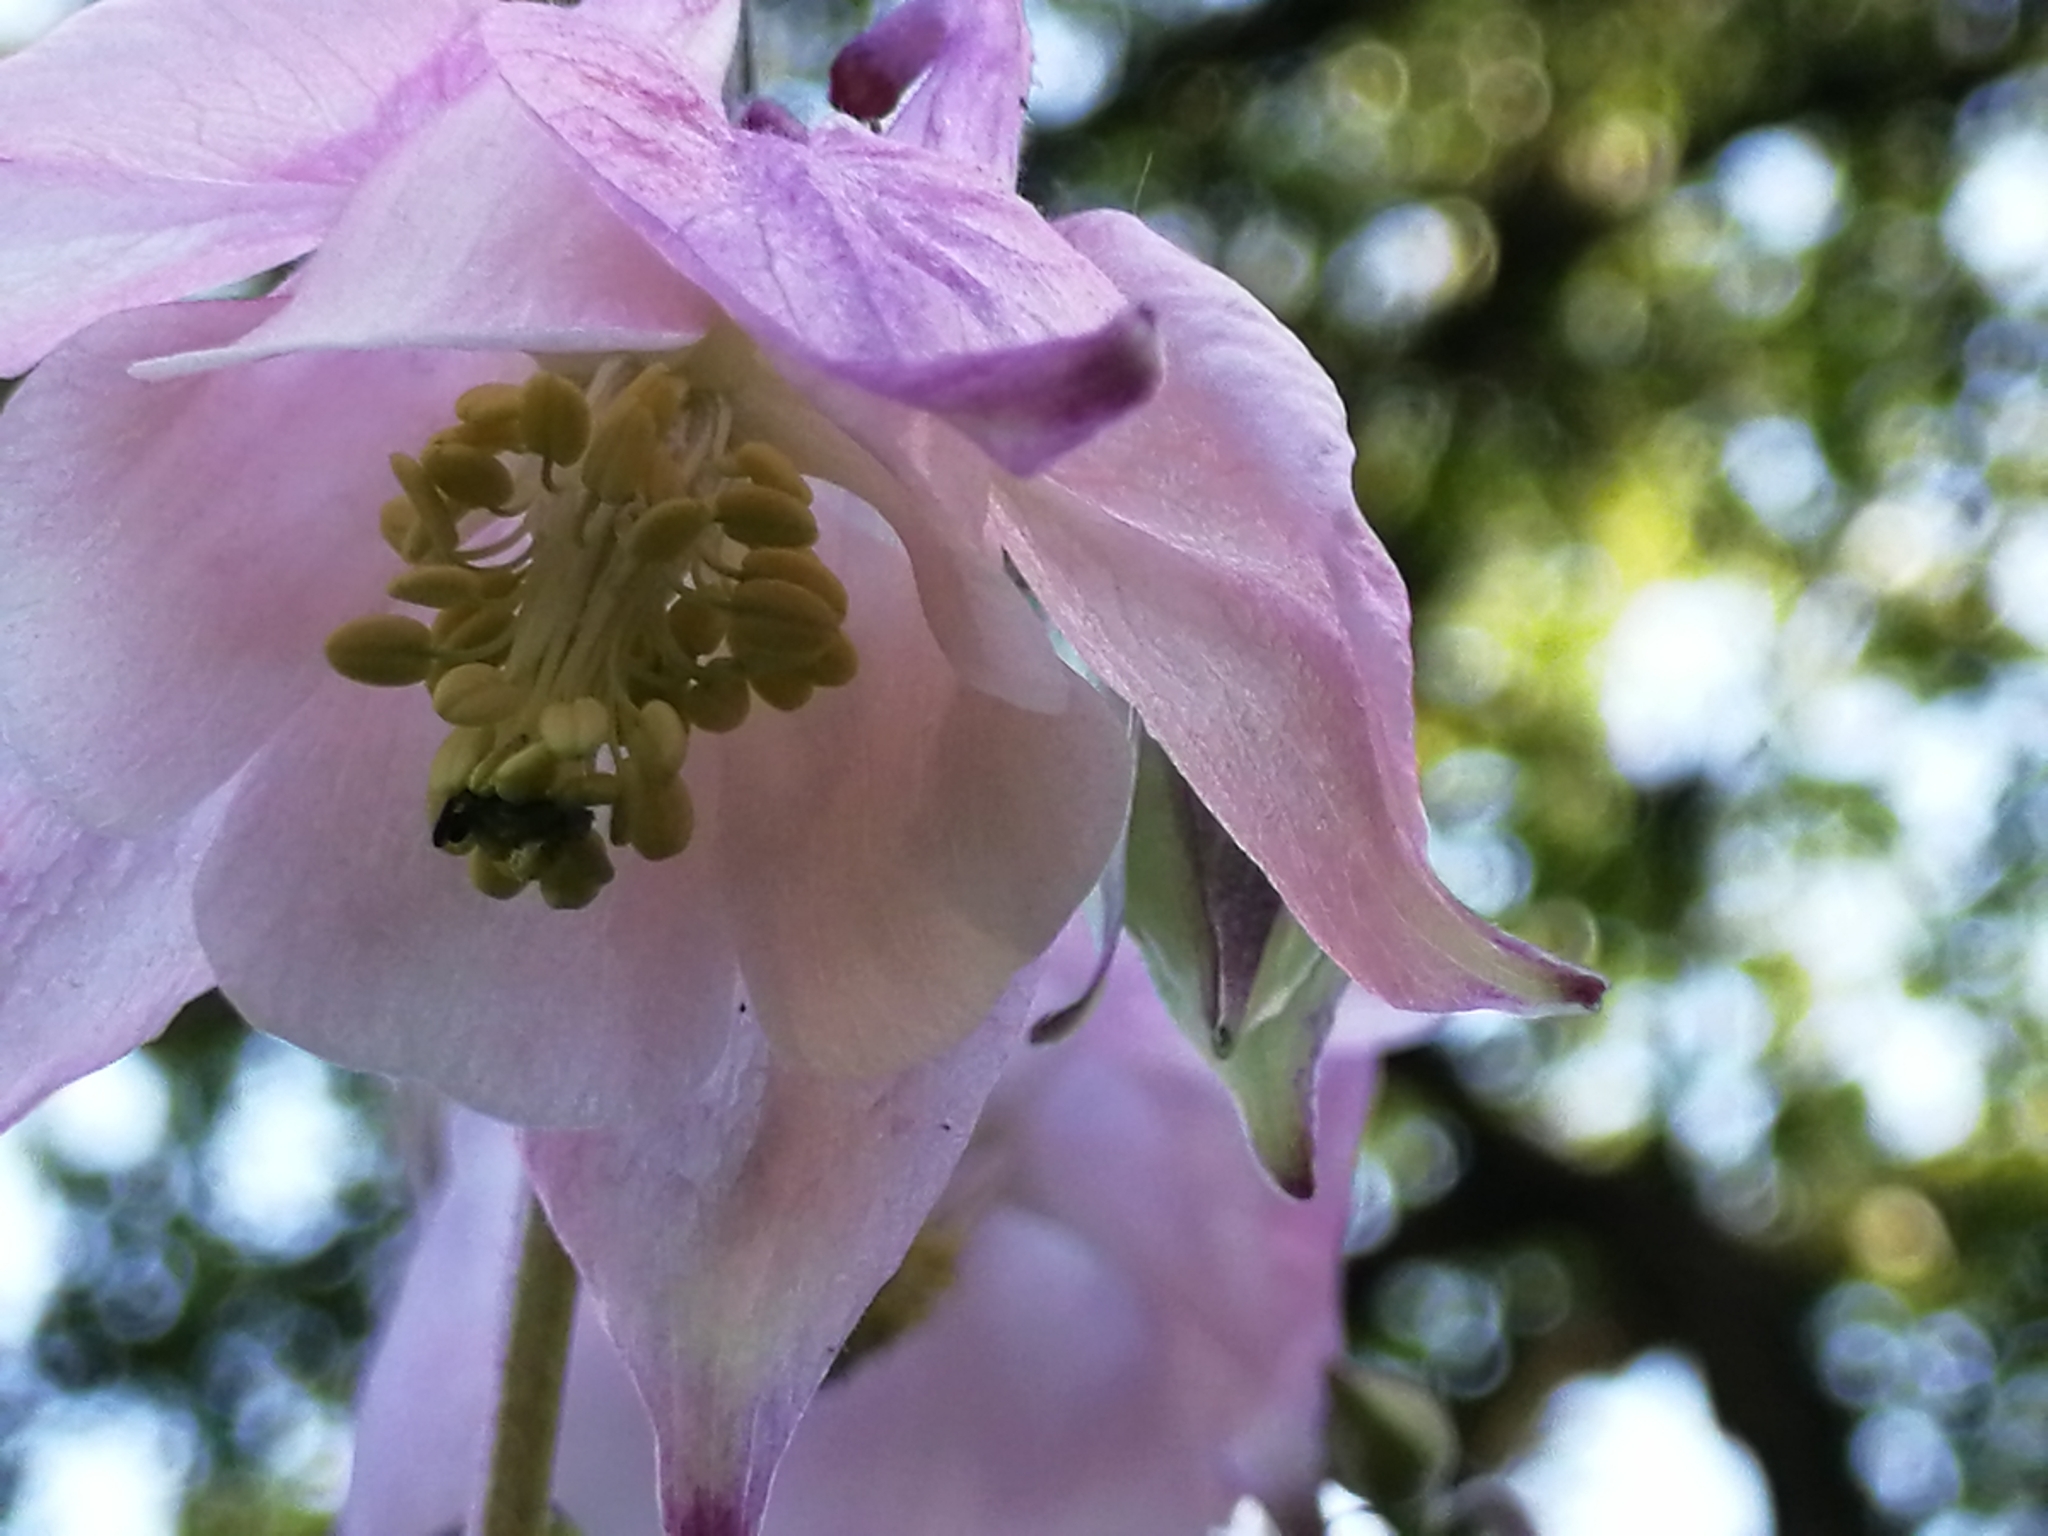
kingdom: Plantae
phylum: Tracheophyta
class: Magnoliopsida
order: Ranunculales
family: Ranunculaceae
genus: Aquilegia
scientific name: Aquilegia vulgaris
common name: Columbine
